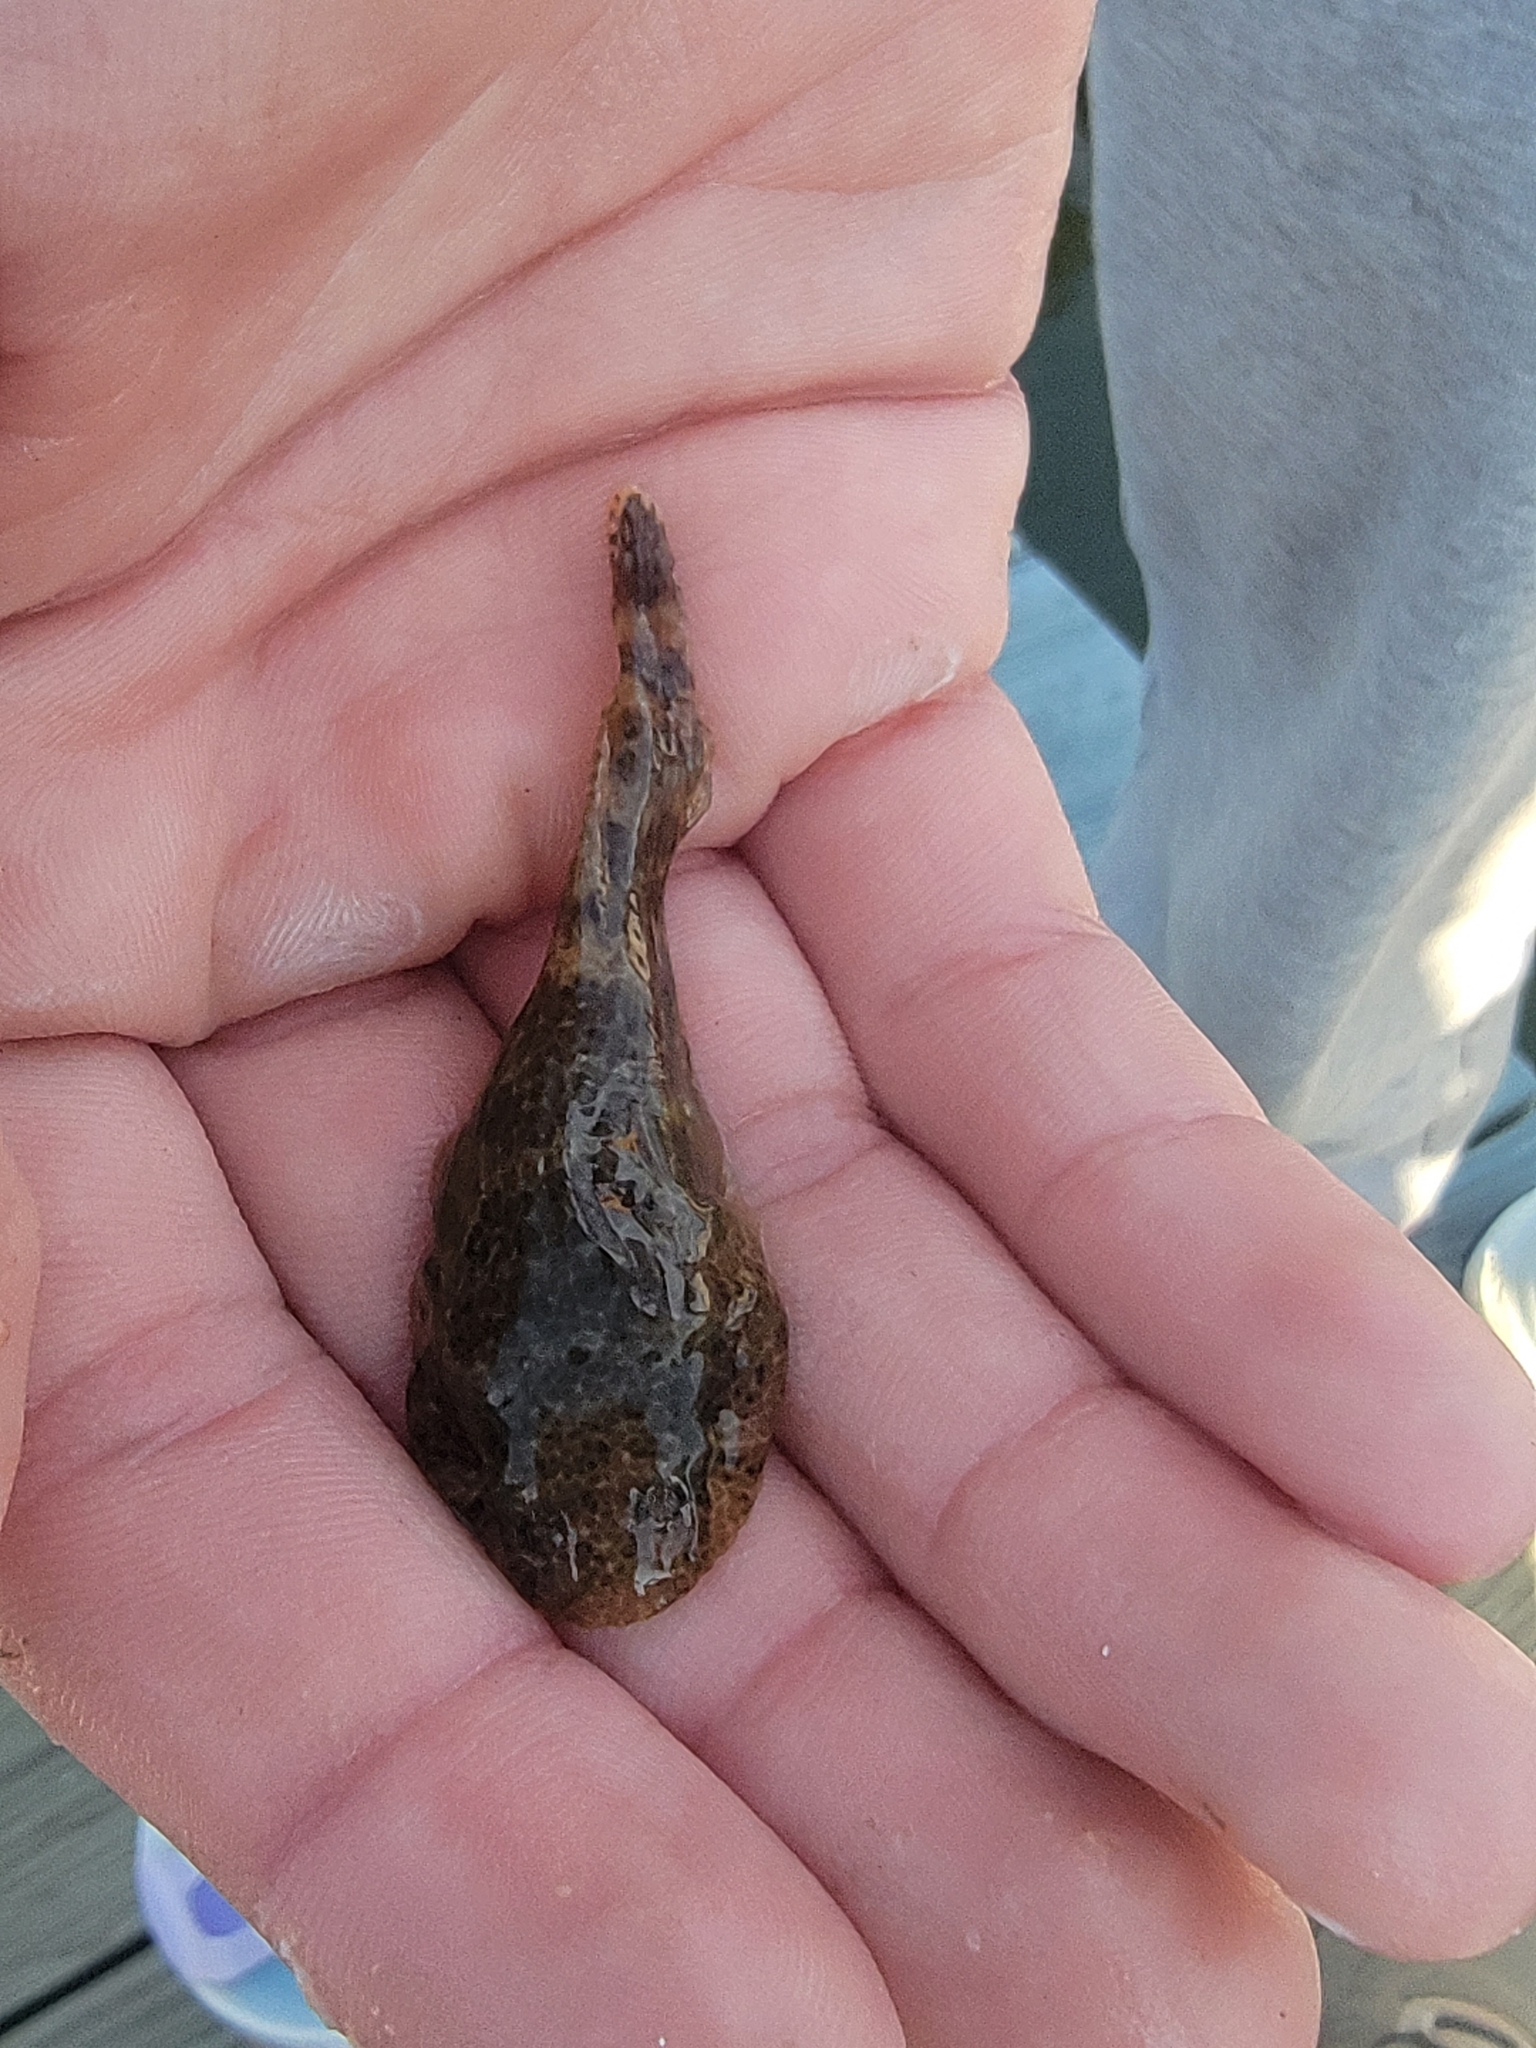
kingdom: Animalia
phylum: Chordata
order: Gobiesociformes
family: Gobiesocidae
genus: Gobiesox
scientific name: Gobiesox strumosus
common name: Skilletfish
